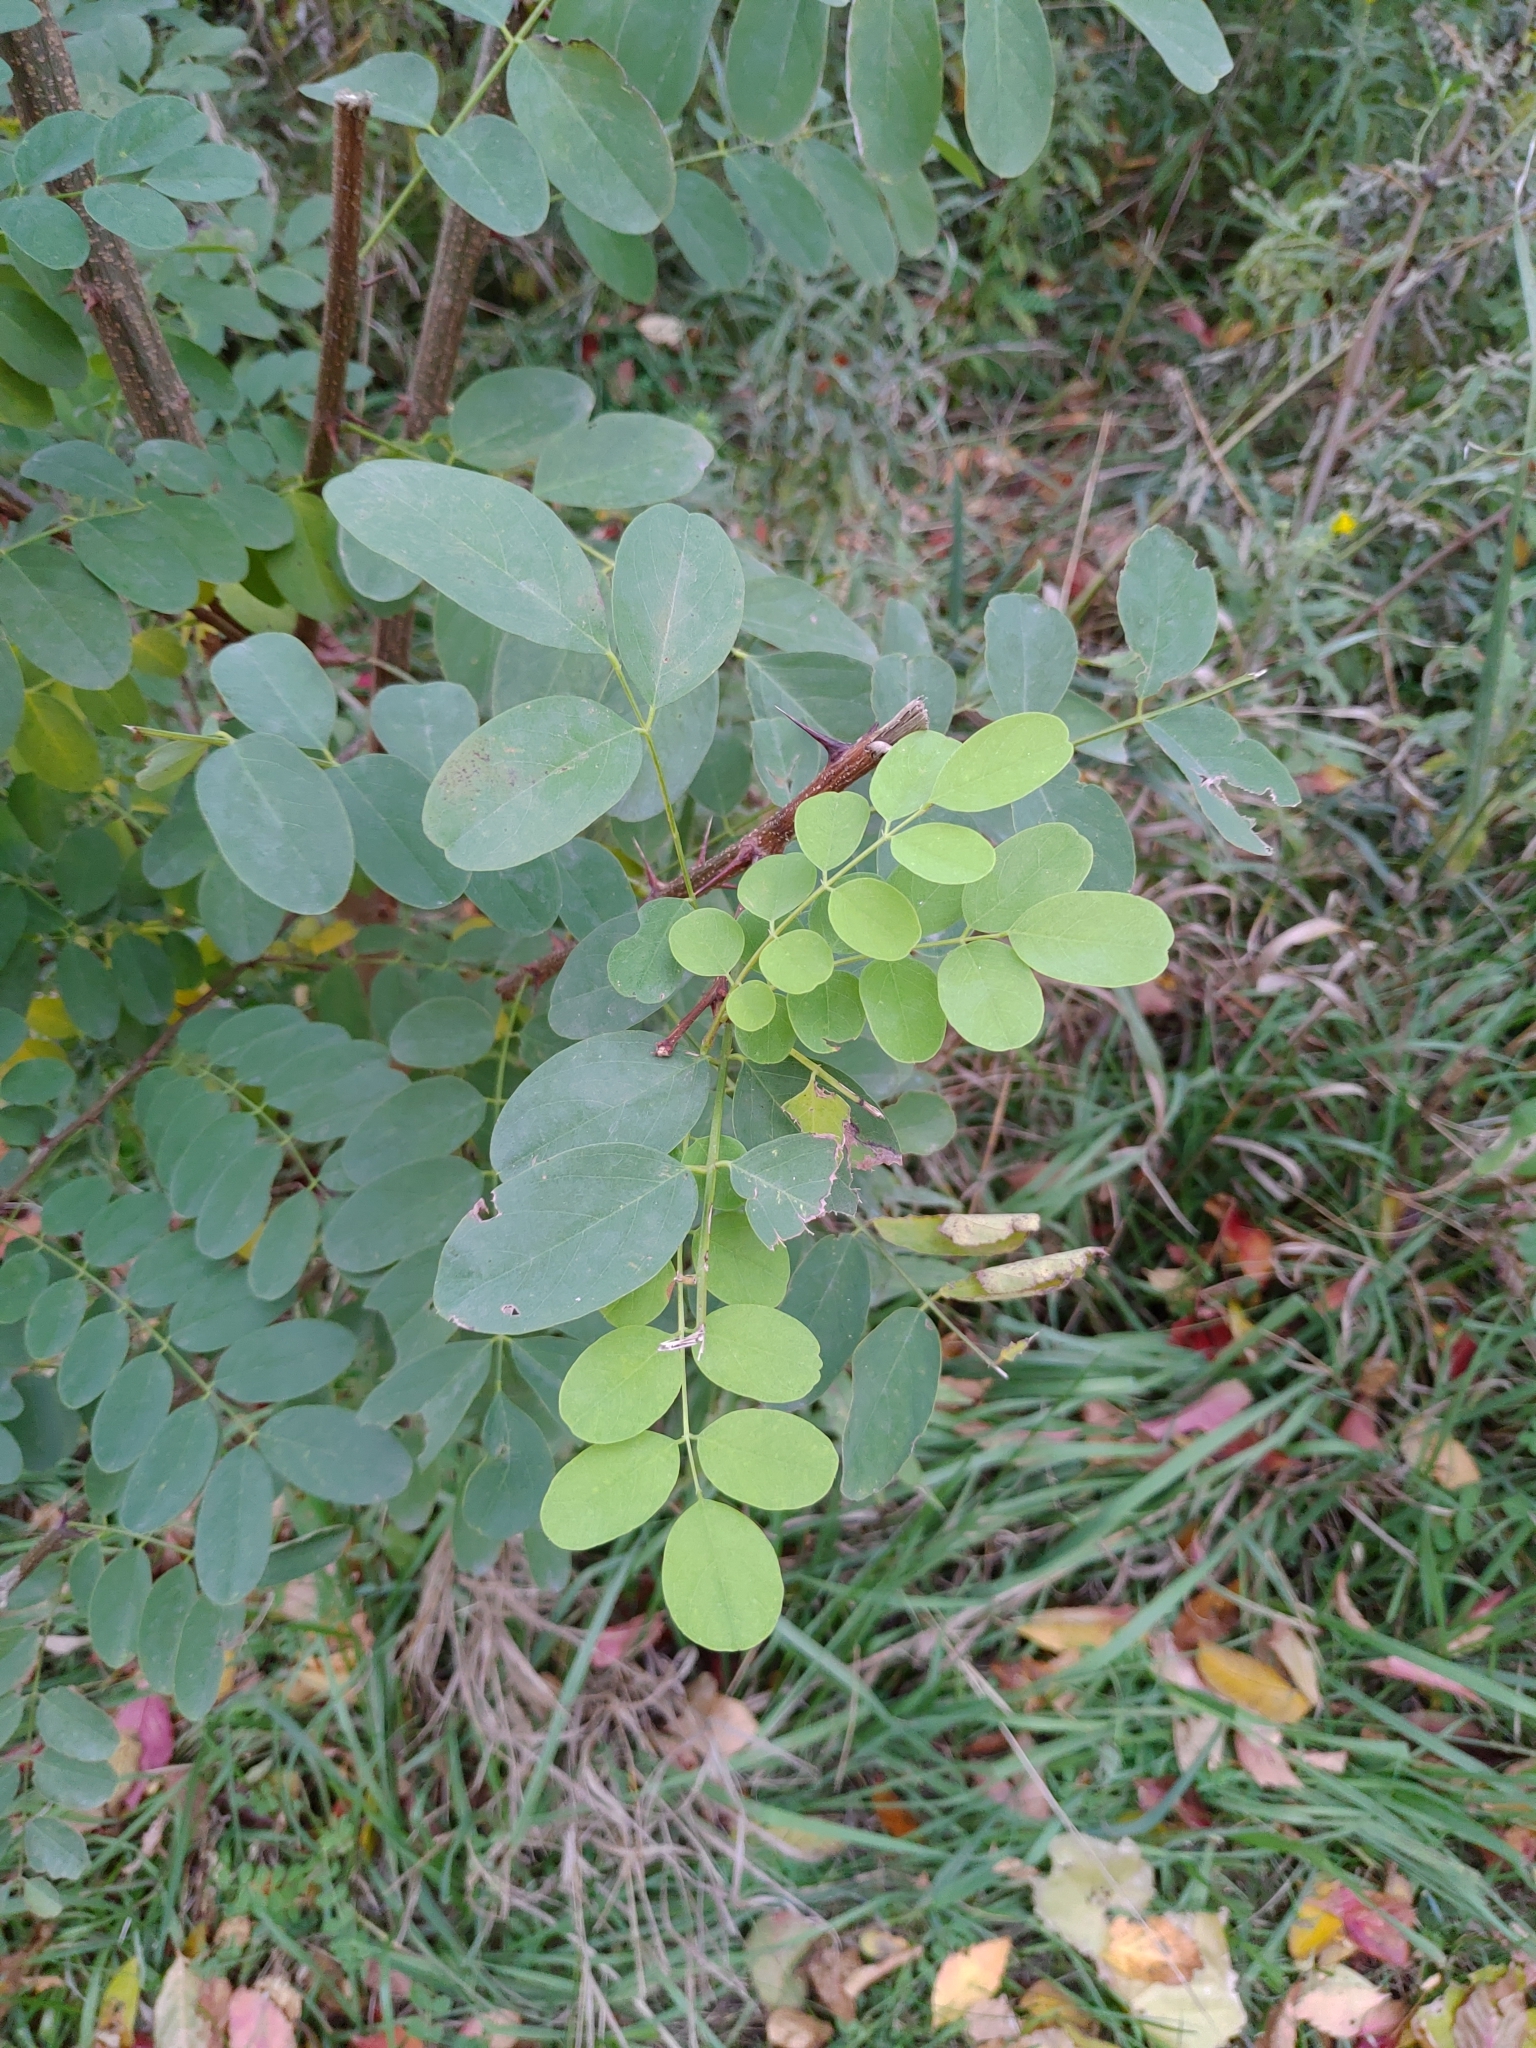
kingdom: Plantae
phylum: Tracheophyta
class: Magnoliopsida
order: Fabales
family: Fabaceae
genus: Robinia
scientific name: Robinia pseudoacacia
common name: Black locust
